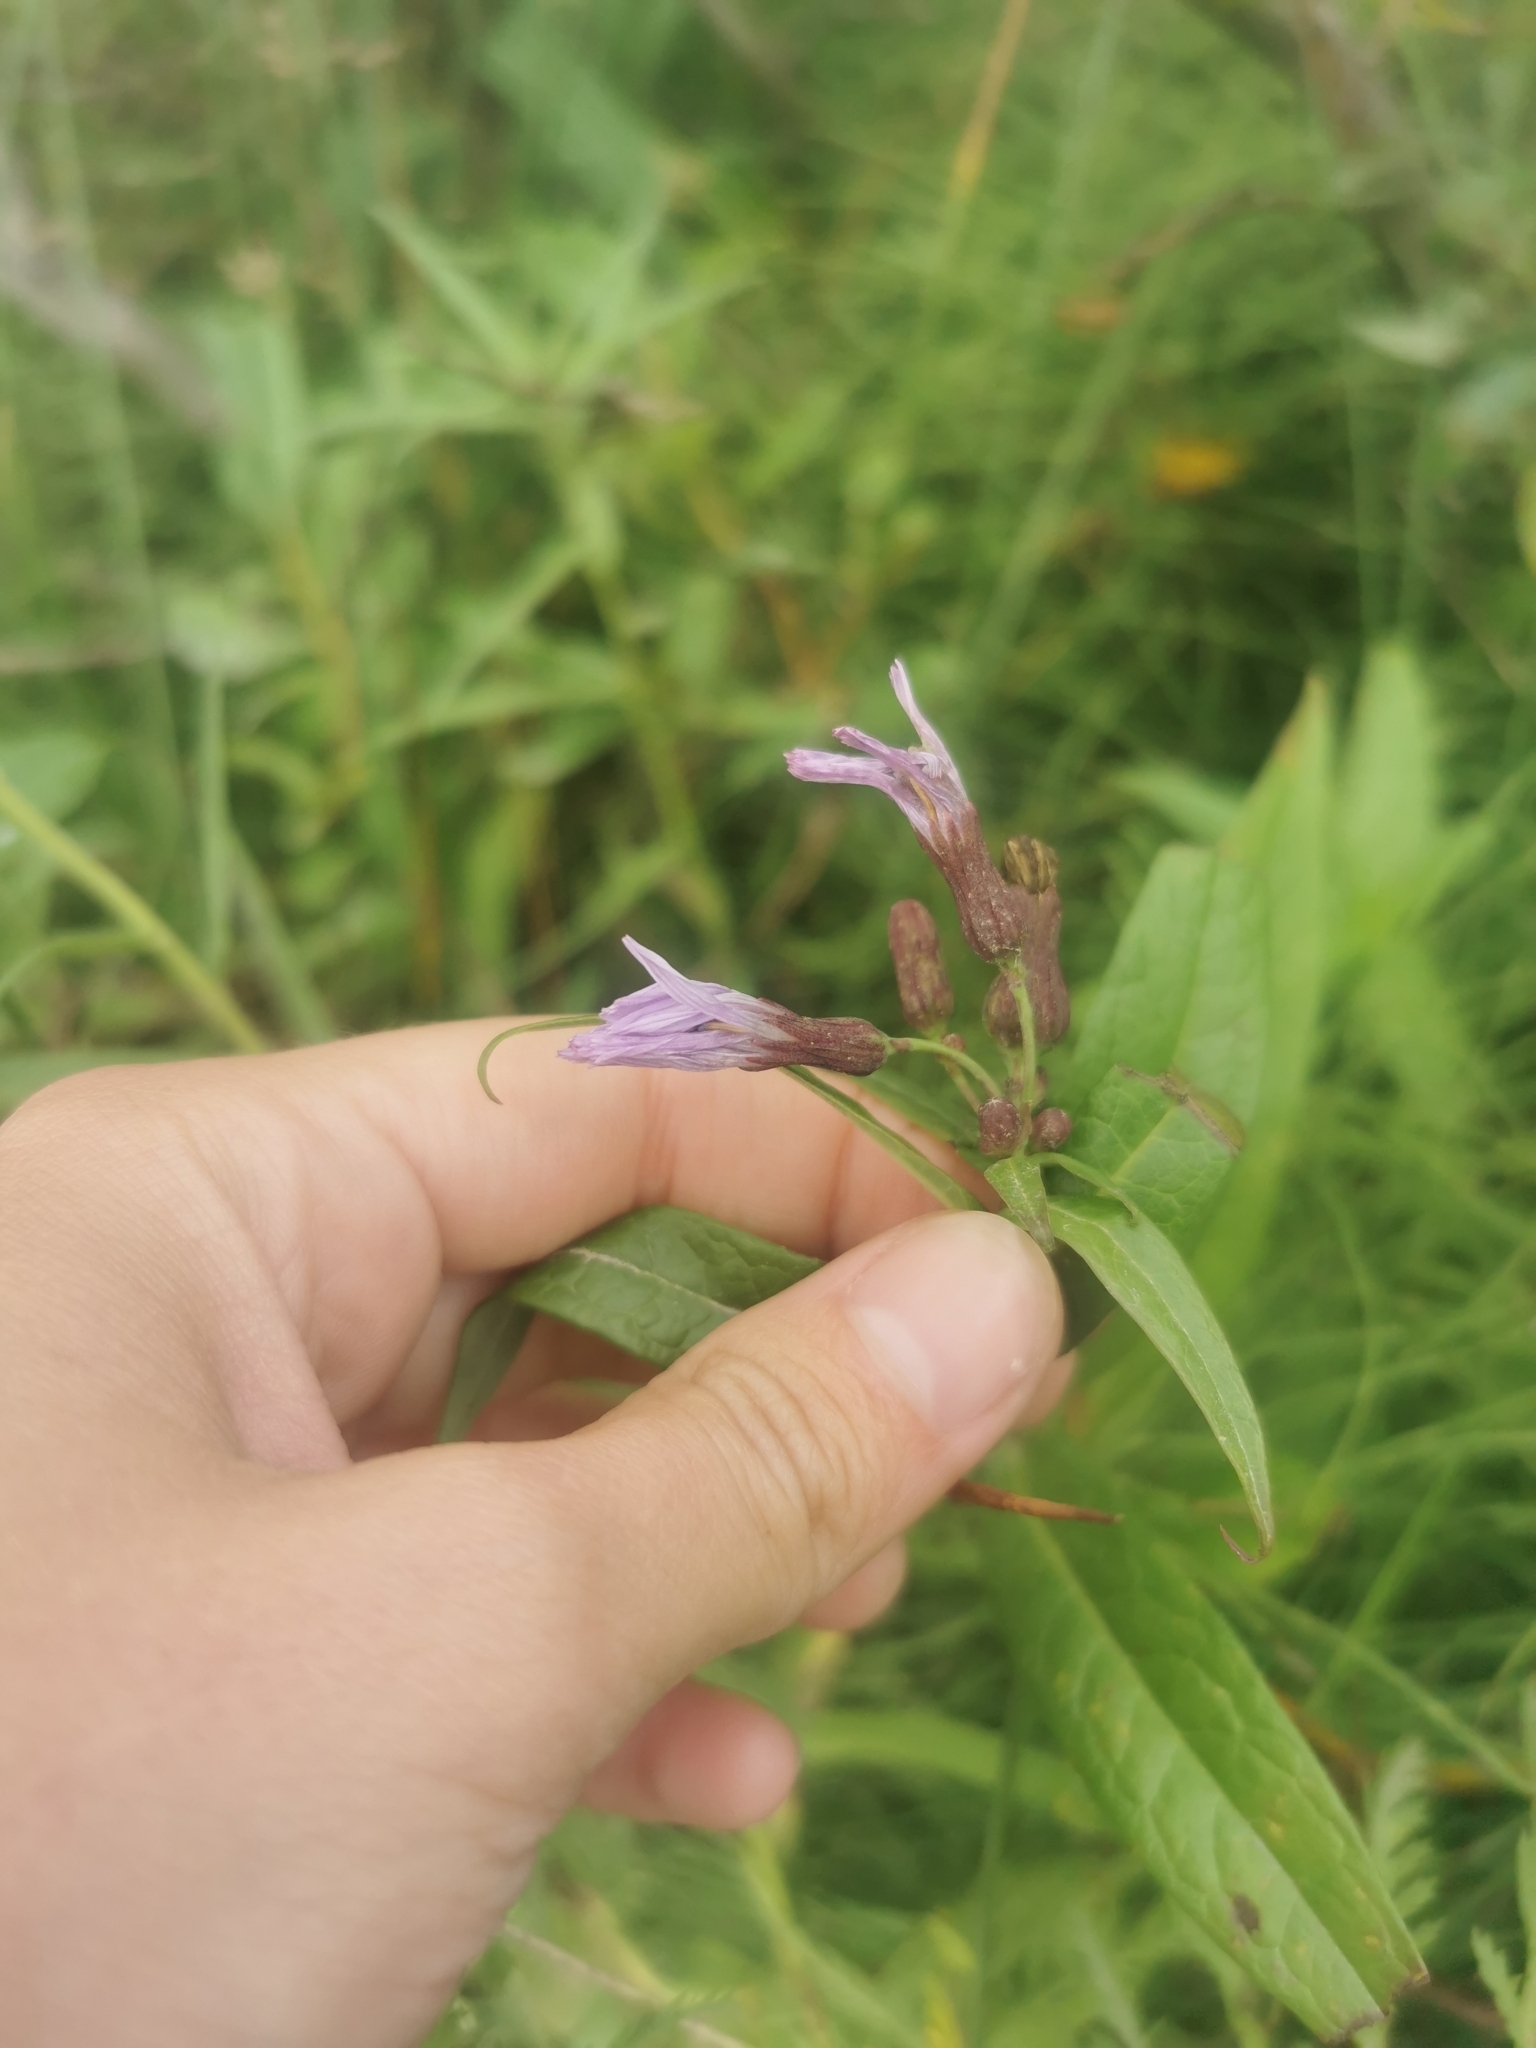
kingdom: Plantae
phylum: Tracheophyta
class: Magnoliopsida
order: Asterales
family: Asteraceae
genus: Lactuca
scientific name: Lactuca sibirica
